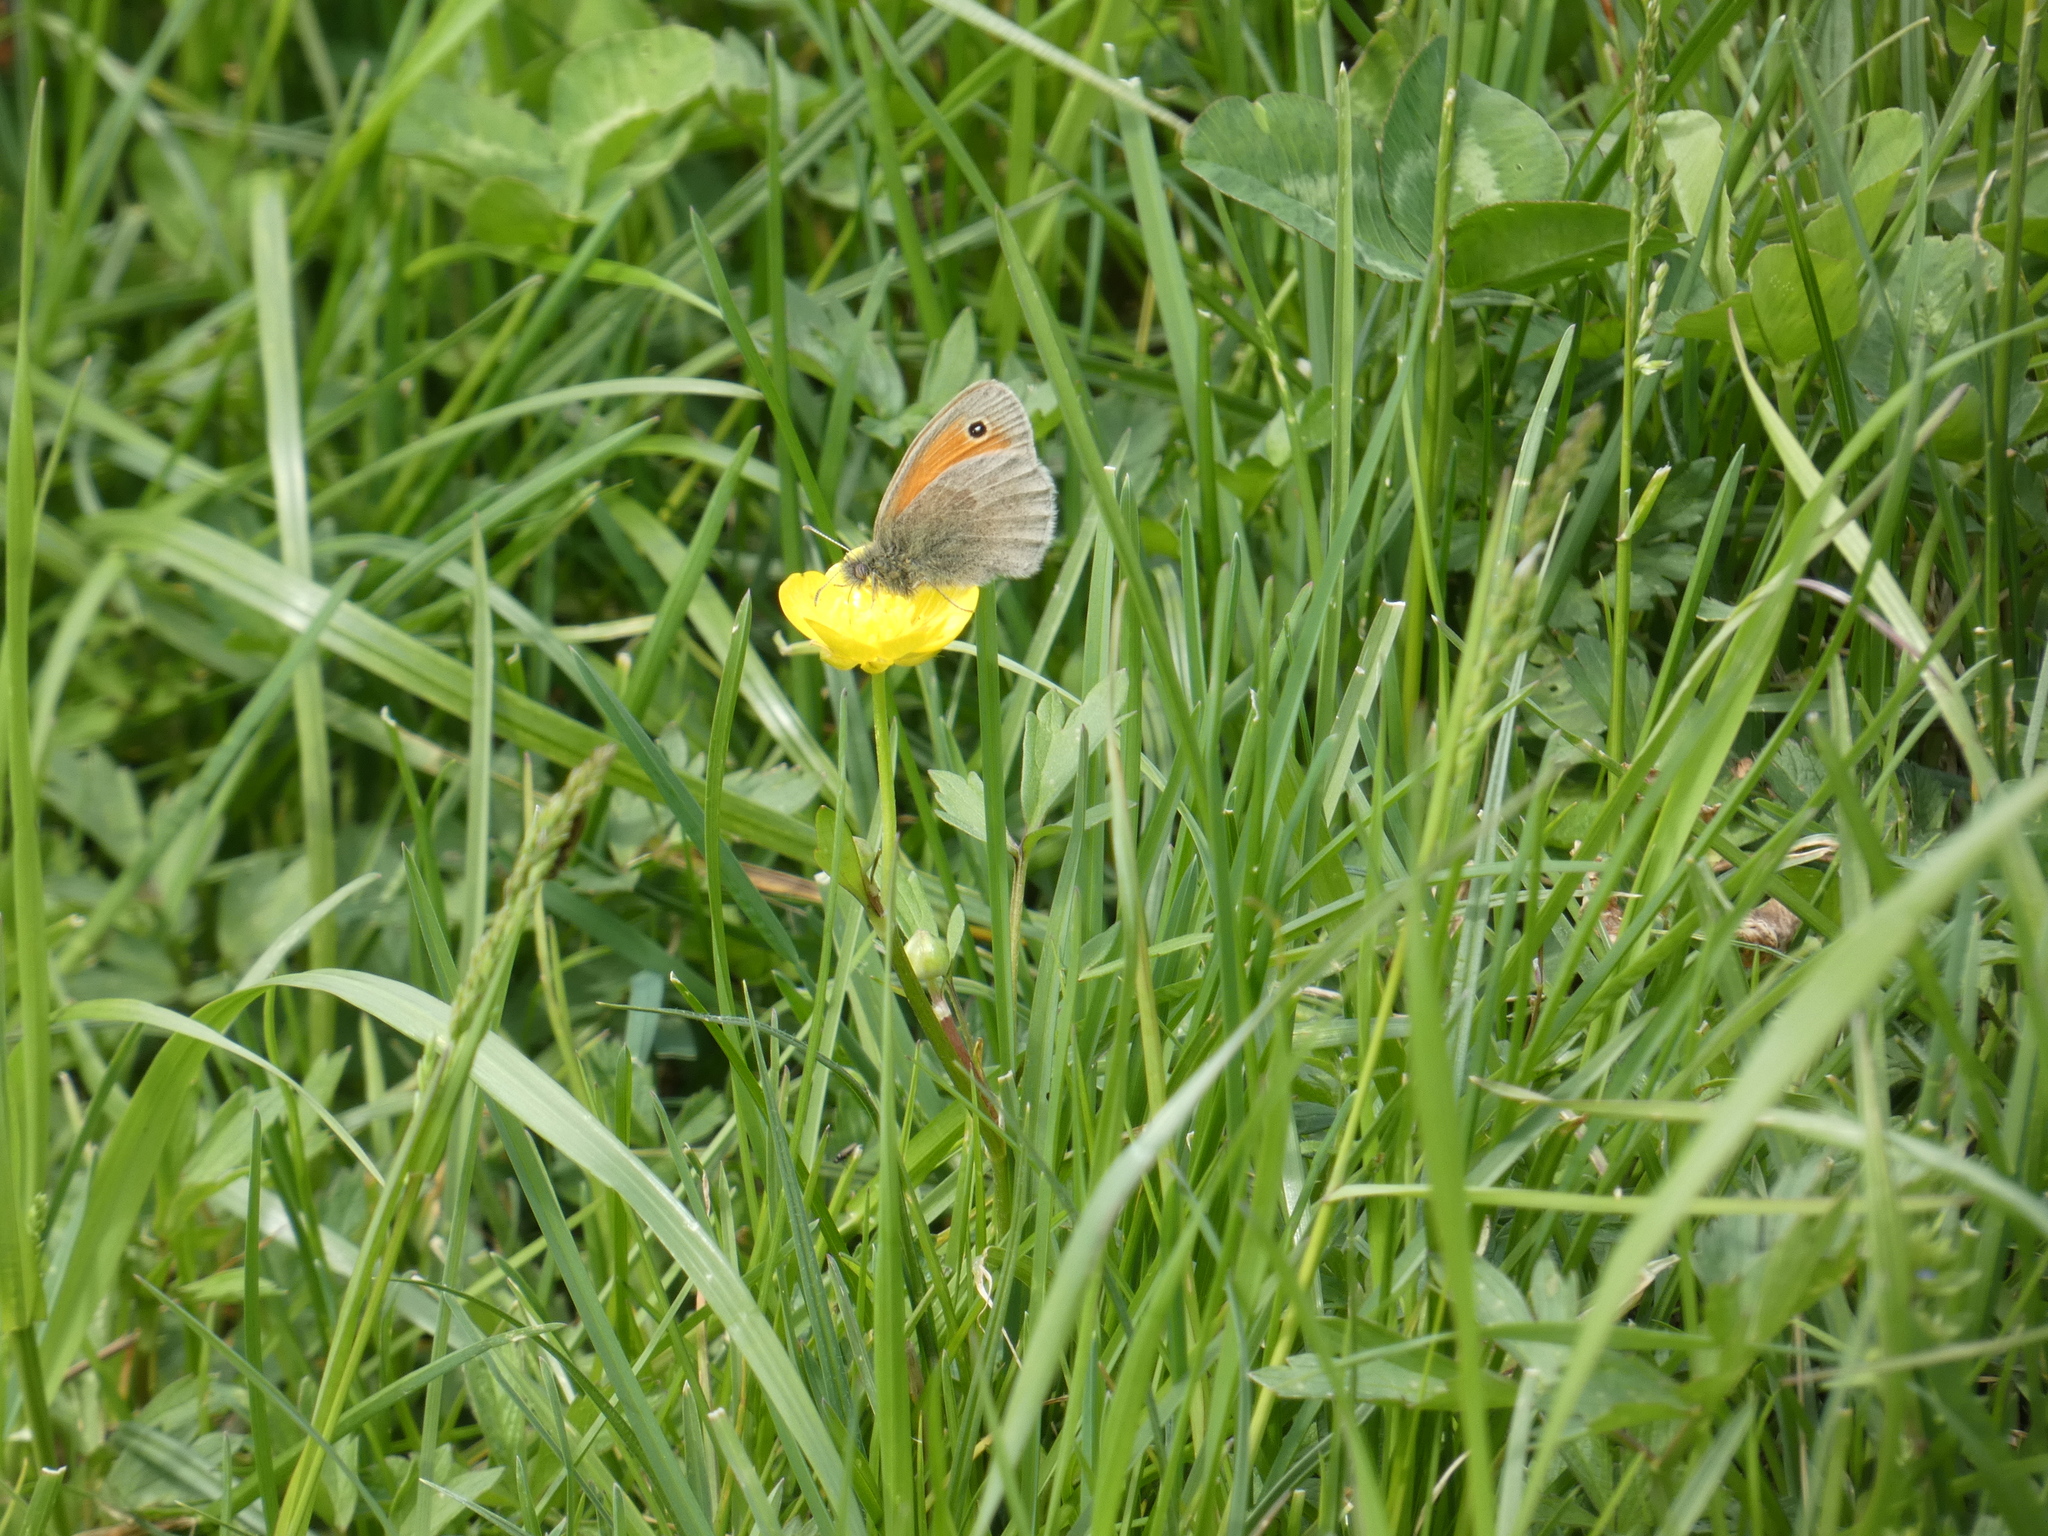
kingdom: Animalia
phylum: Arthropoda
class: Insecta
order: Lepidoptera
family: Nymphalidae
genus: Coenonympha
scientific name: Coenonympha pamphilus
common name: Small heath
